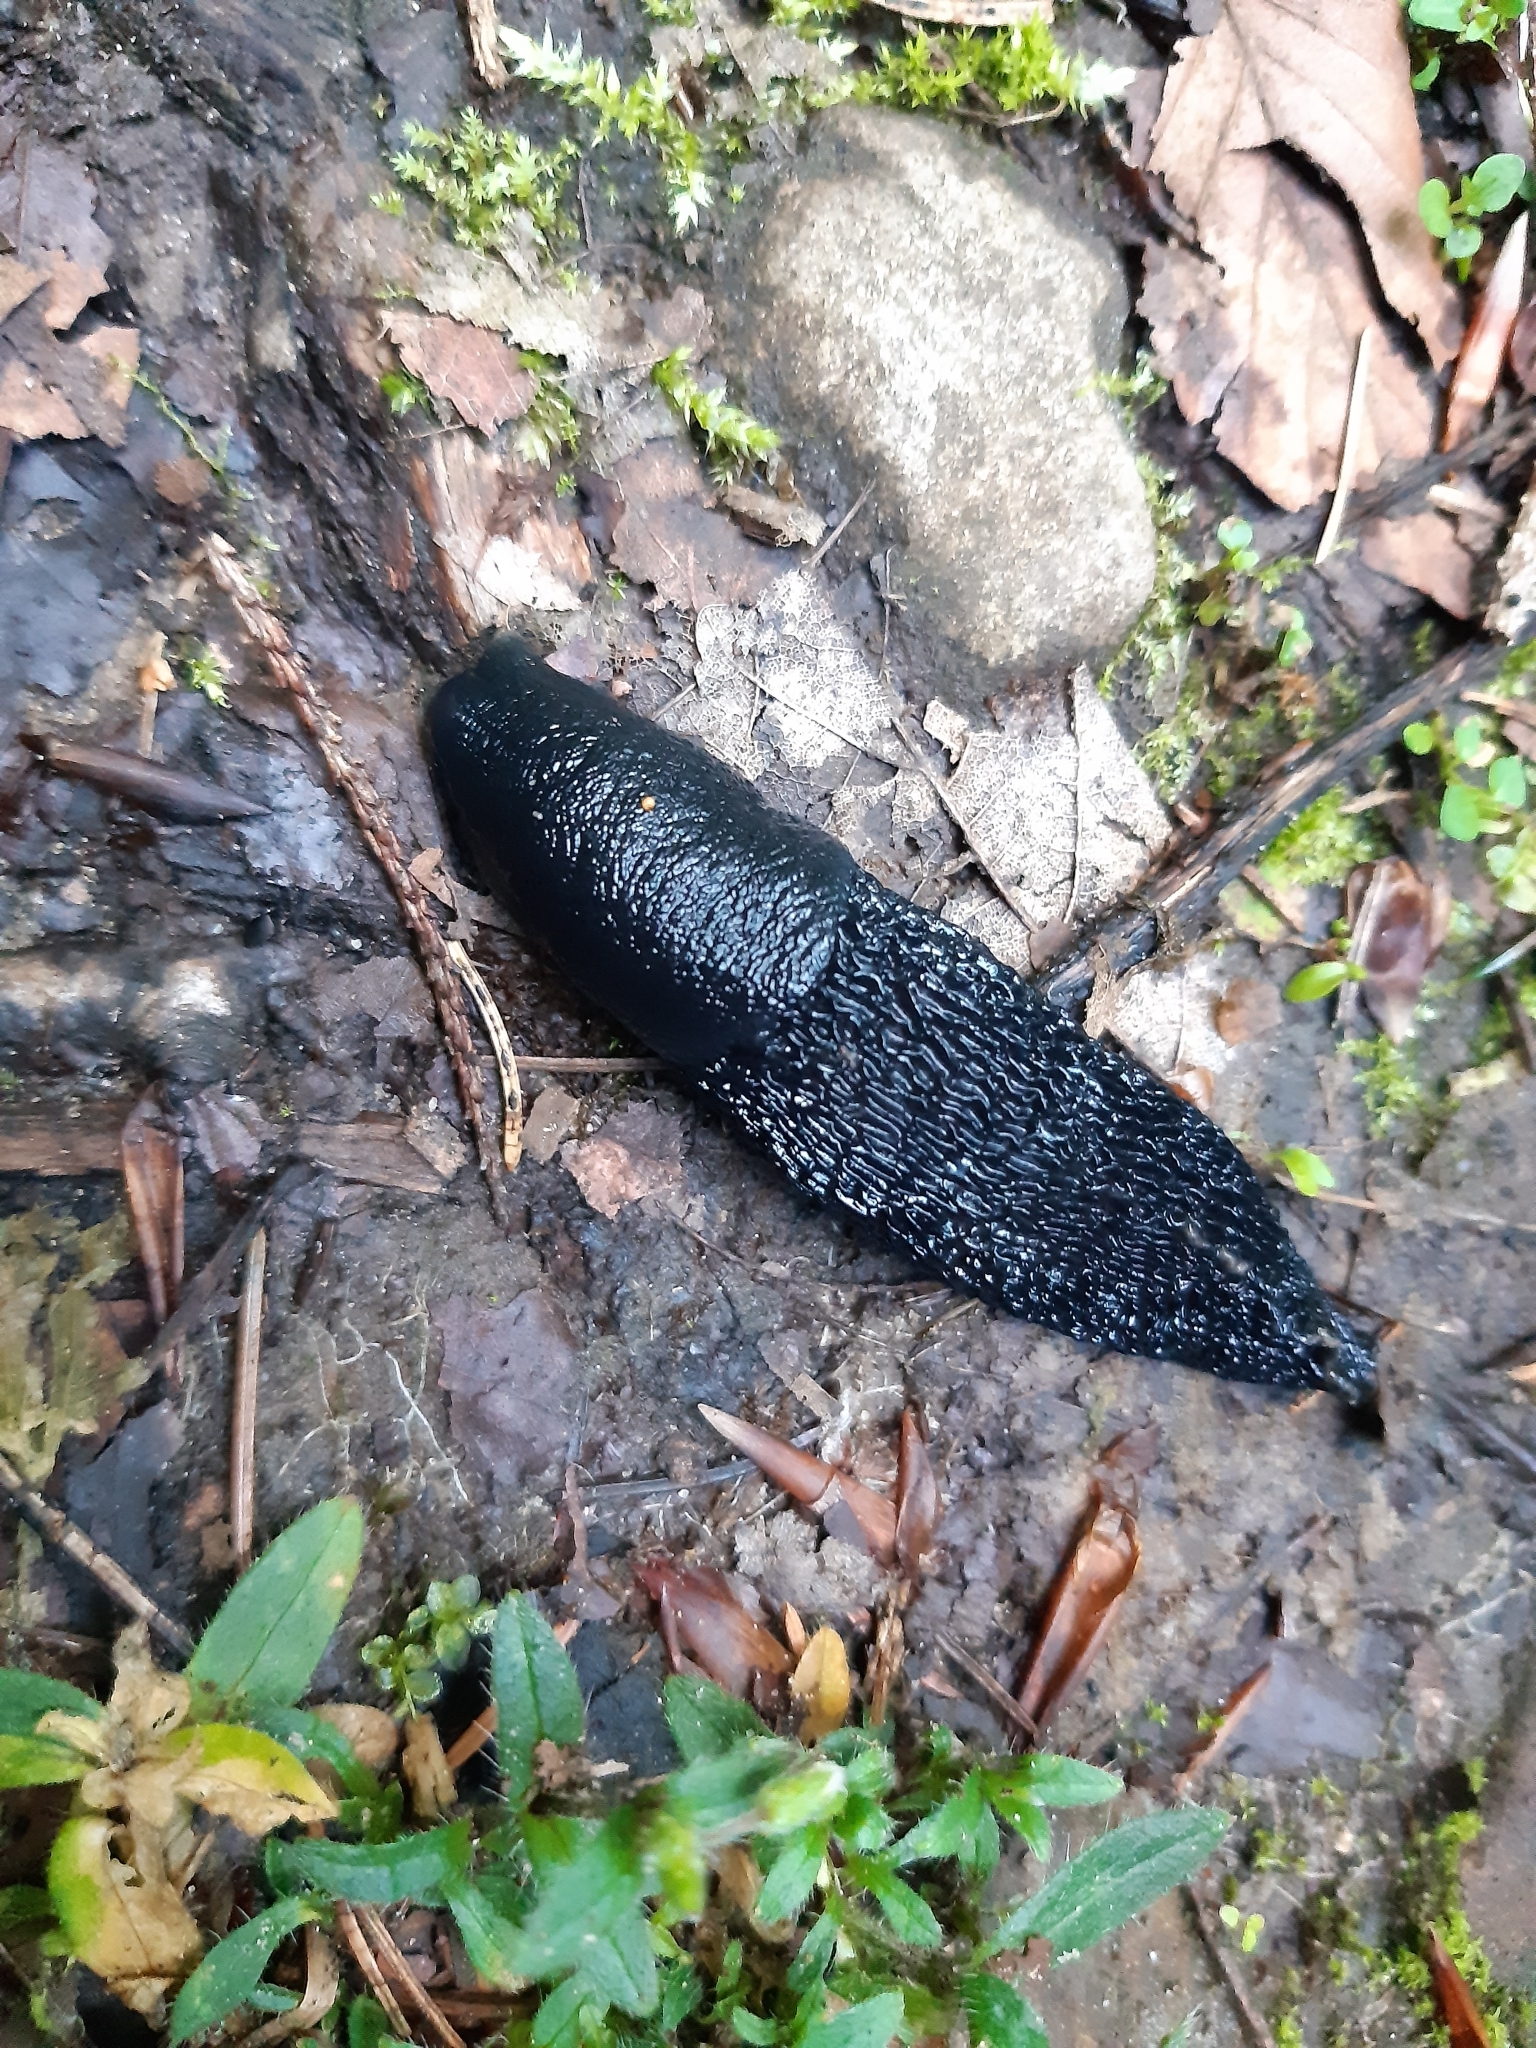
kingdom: Animalia
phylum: Mollusca
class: Gastropoda
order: Stylommatophora
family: Limacidae
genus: Limax
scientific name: Limax cinereoniger
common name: Ash-black slug
